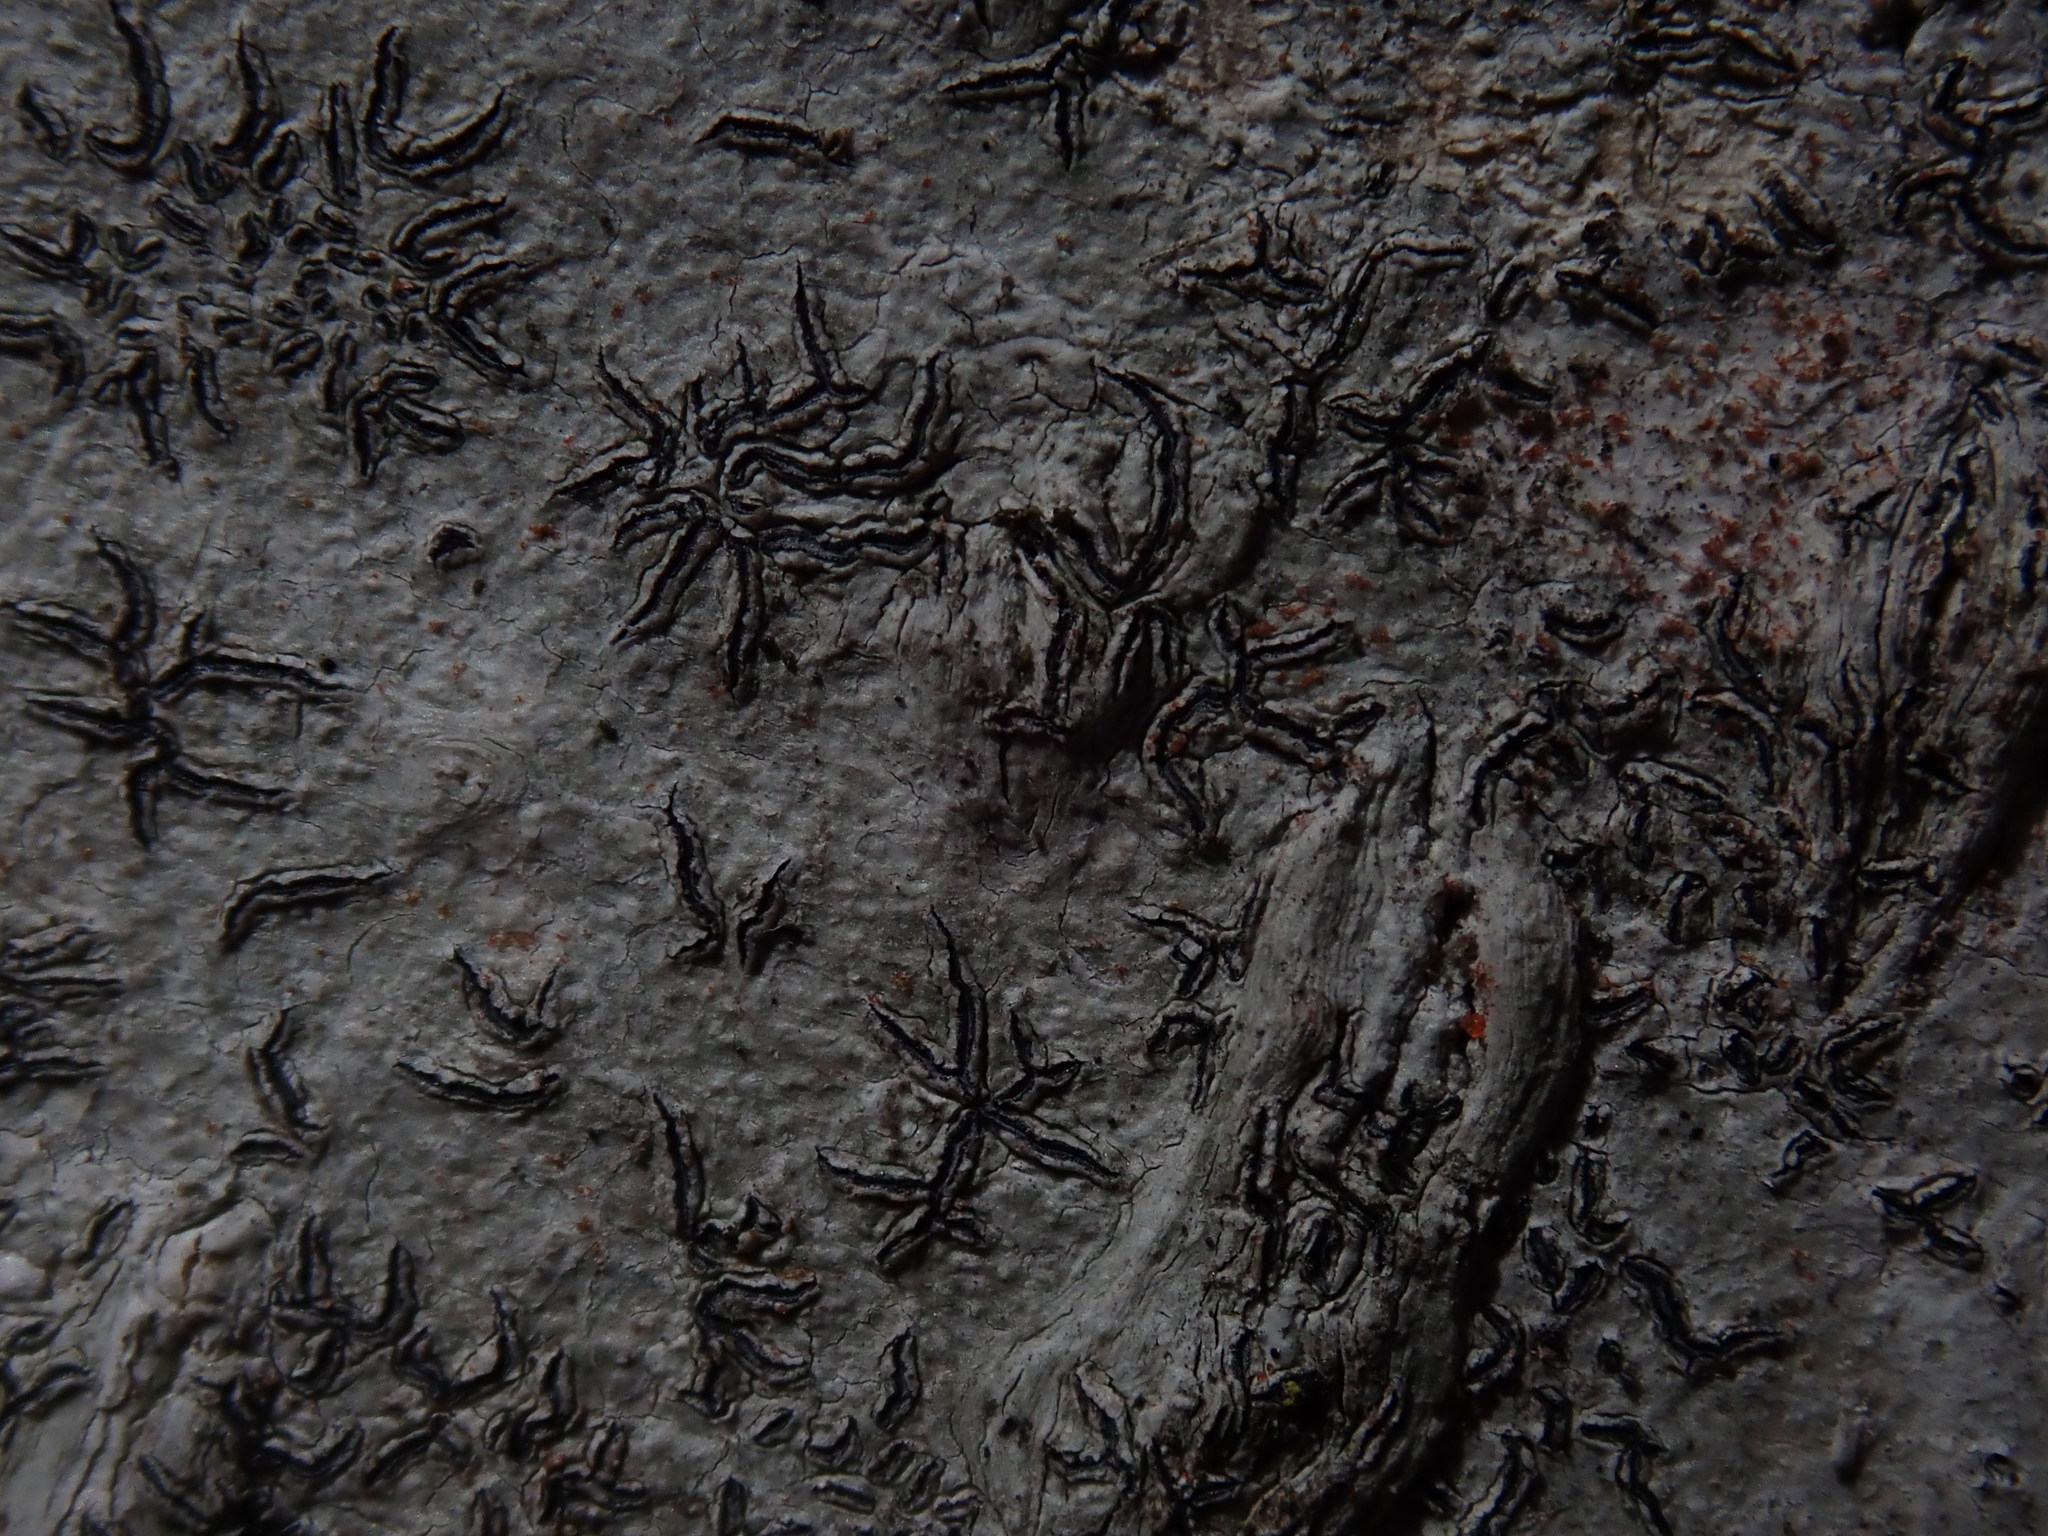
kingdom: Fungi
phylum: Ascomycota
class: Lecanoromycetes
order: Ostropales
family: Graphidaceae
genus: Graphis
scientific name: Graphis scripta
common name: Script lichen
